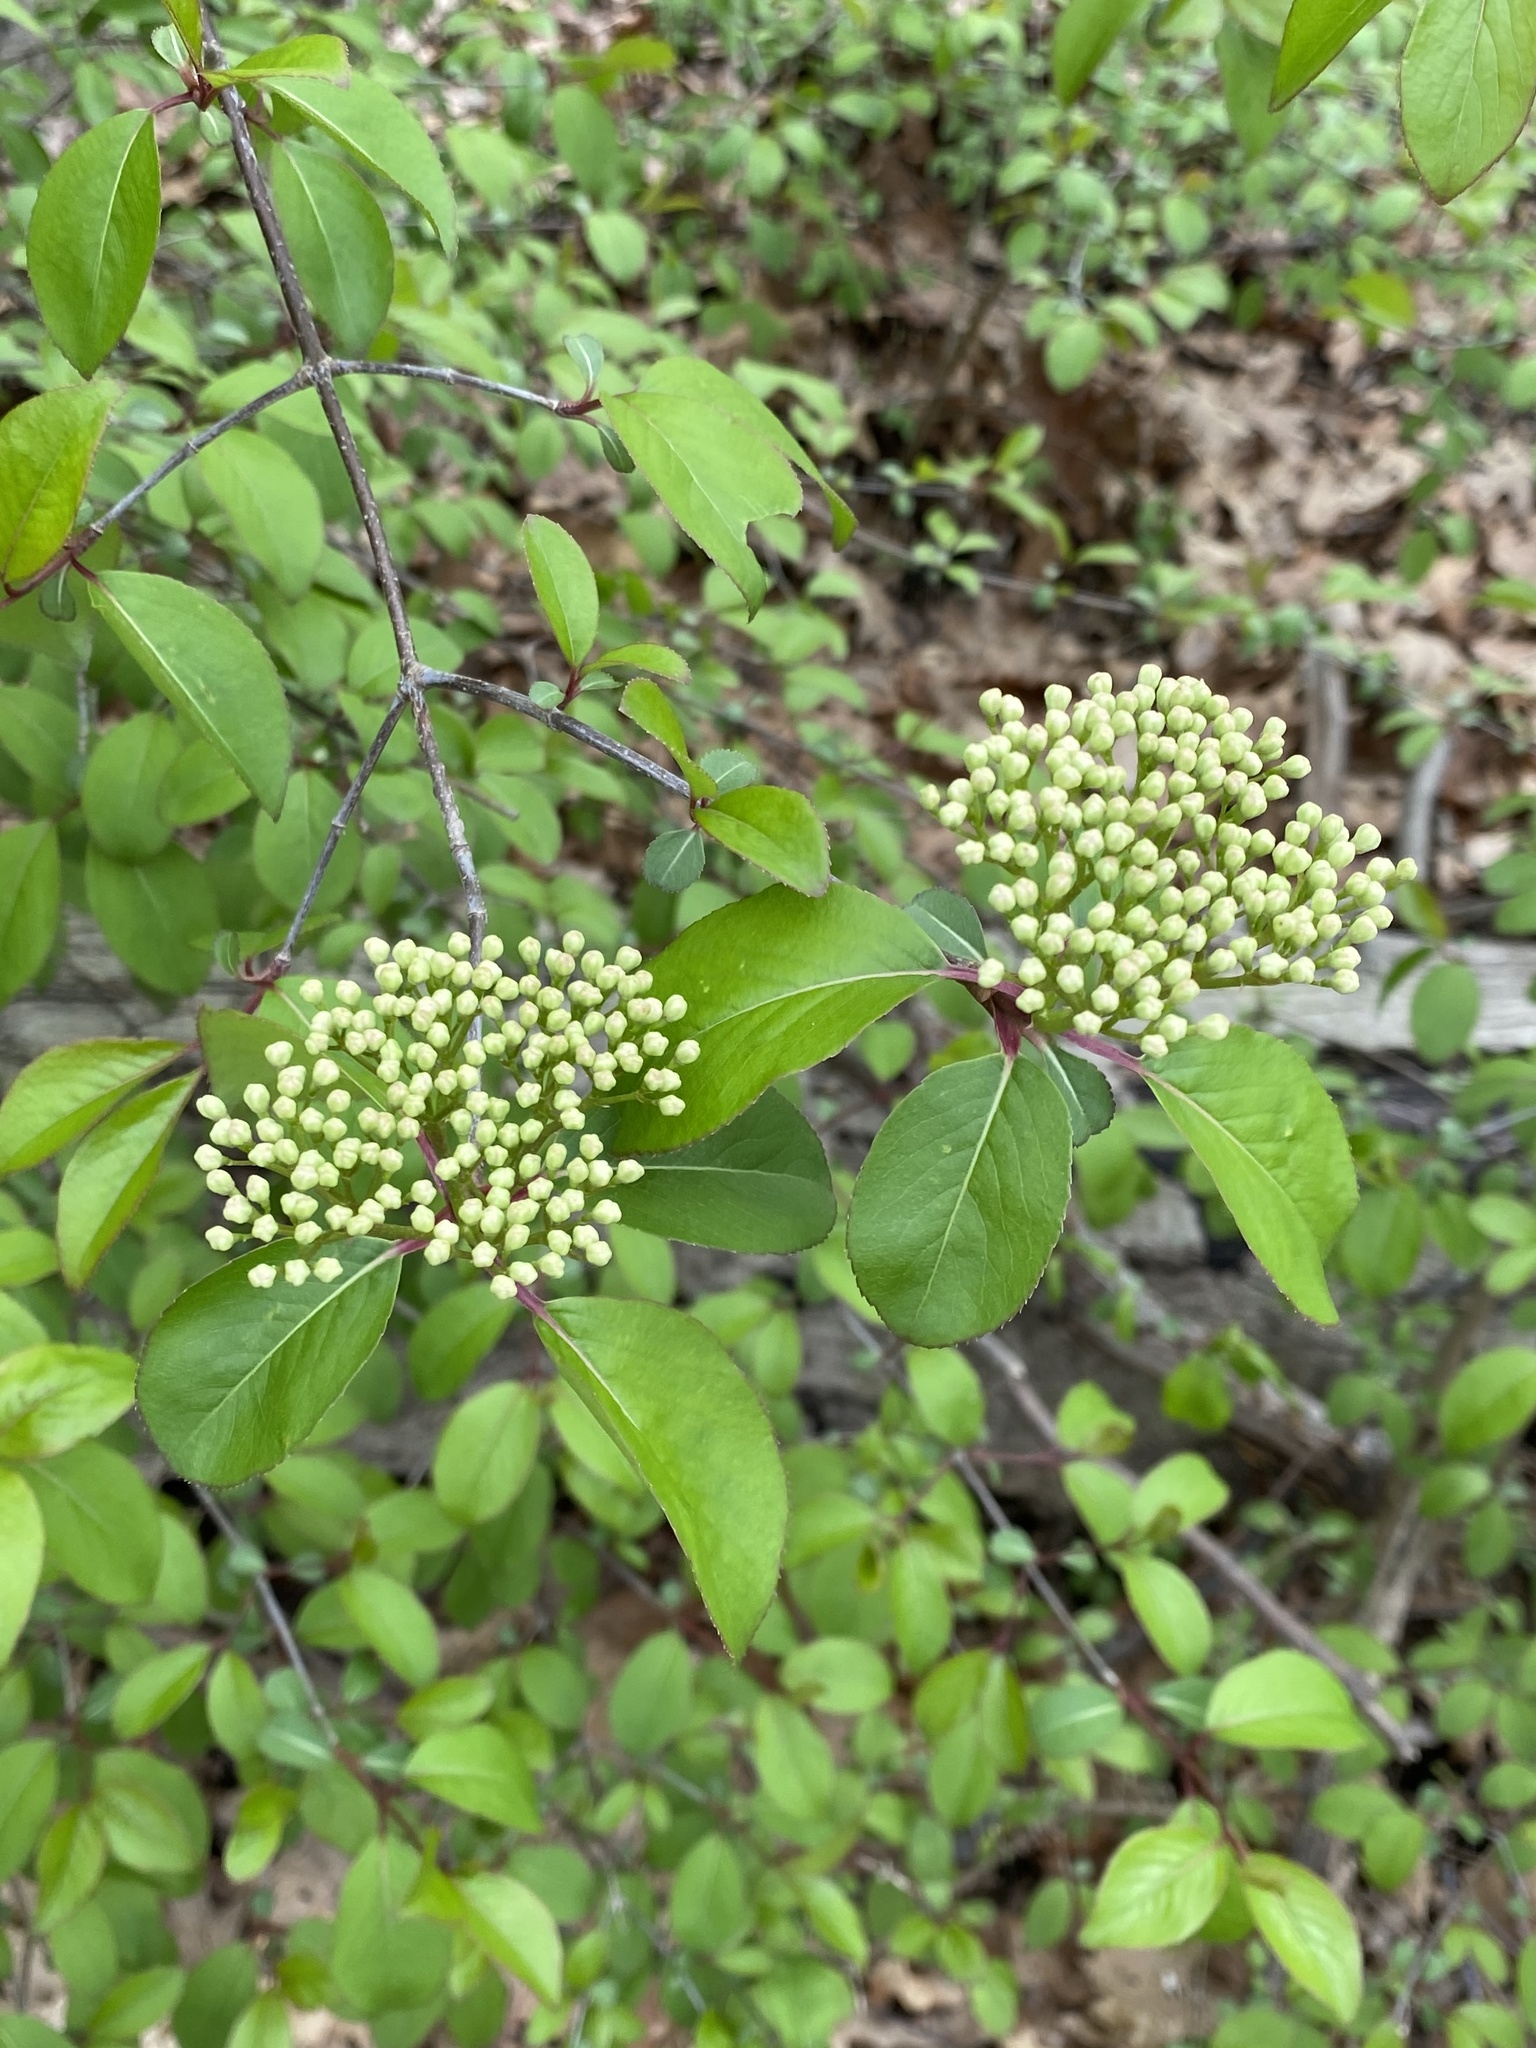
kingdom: Plantae
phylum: Tracheophyta
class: Magnoliopsida
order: Dipsacales
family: Viburnaceae
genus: Viburnum
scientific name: Viburnum prunifolium
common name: Black haw
